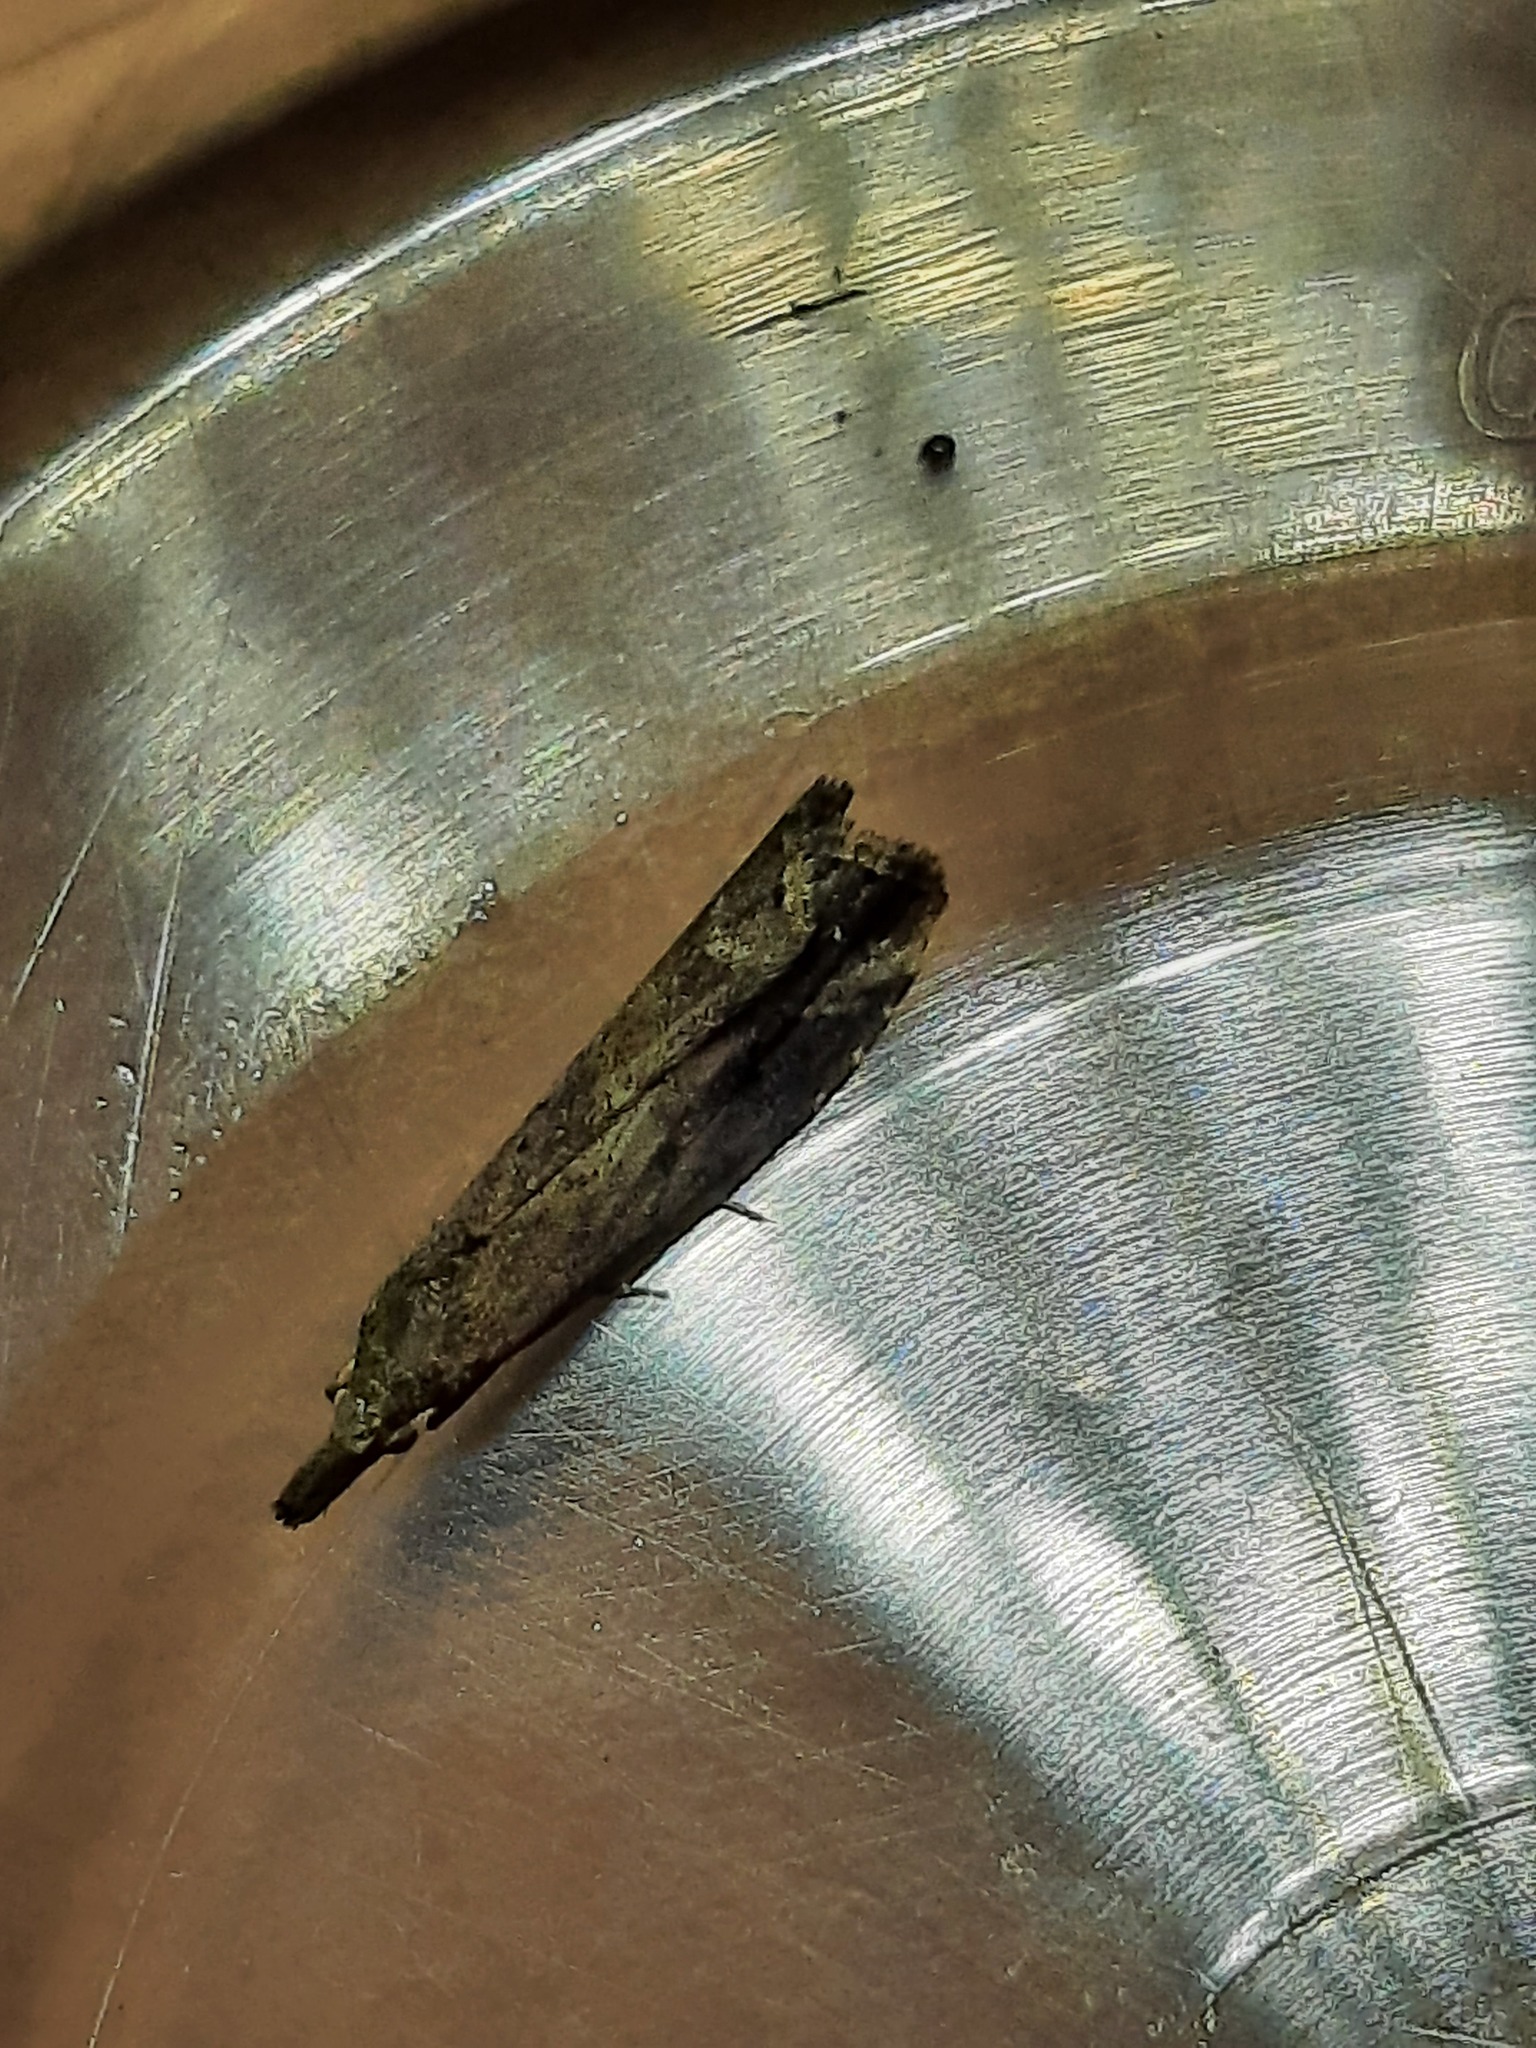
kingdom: Animalia
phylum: Arthropoda
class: Insecta
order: Lepidoptera
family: Erebidae
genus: Schrankia
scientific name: Schrankia costaestrigalis
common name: Pinion-streaked snout
